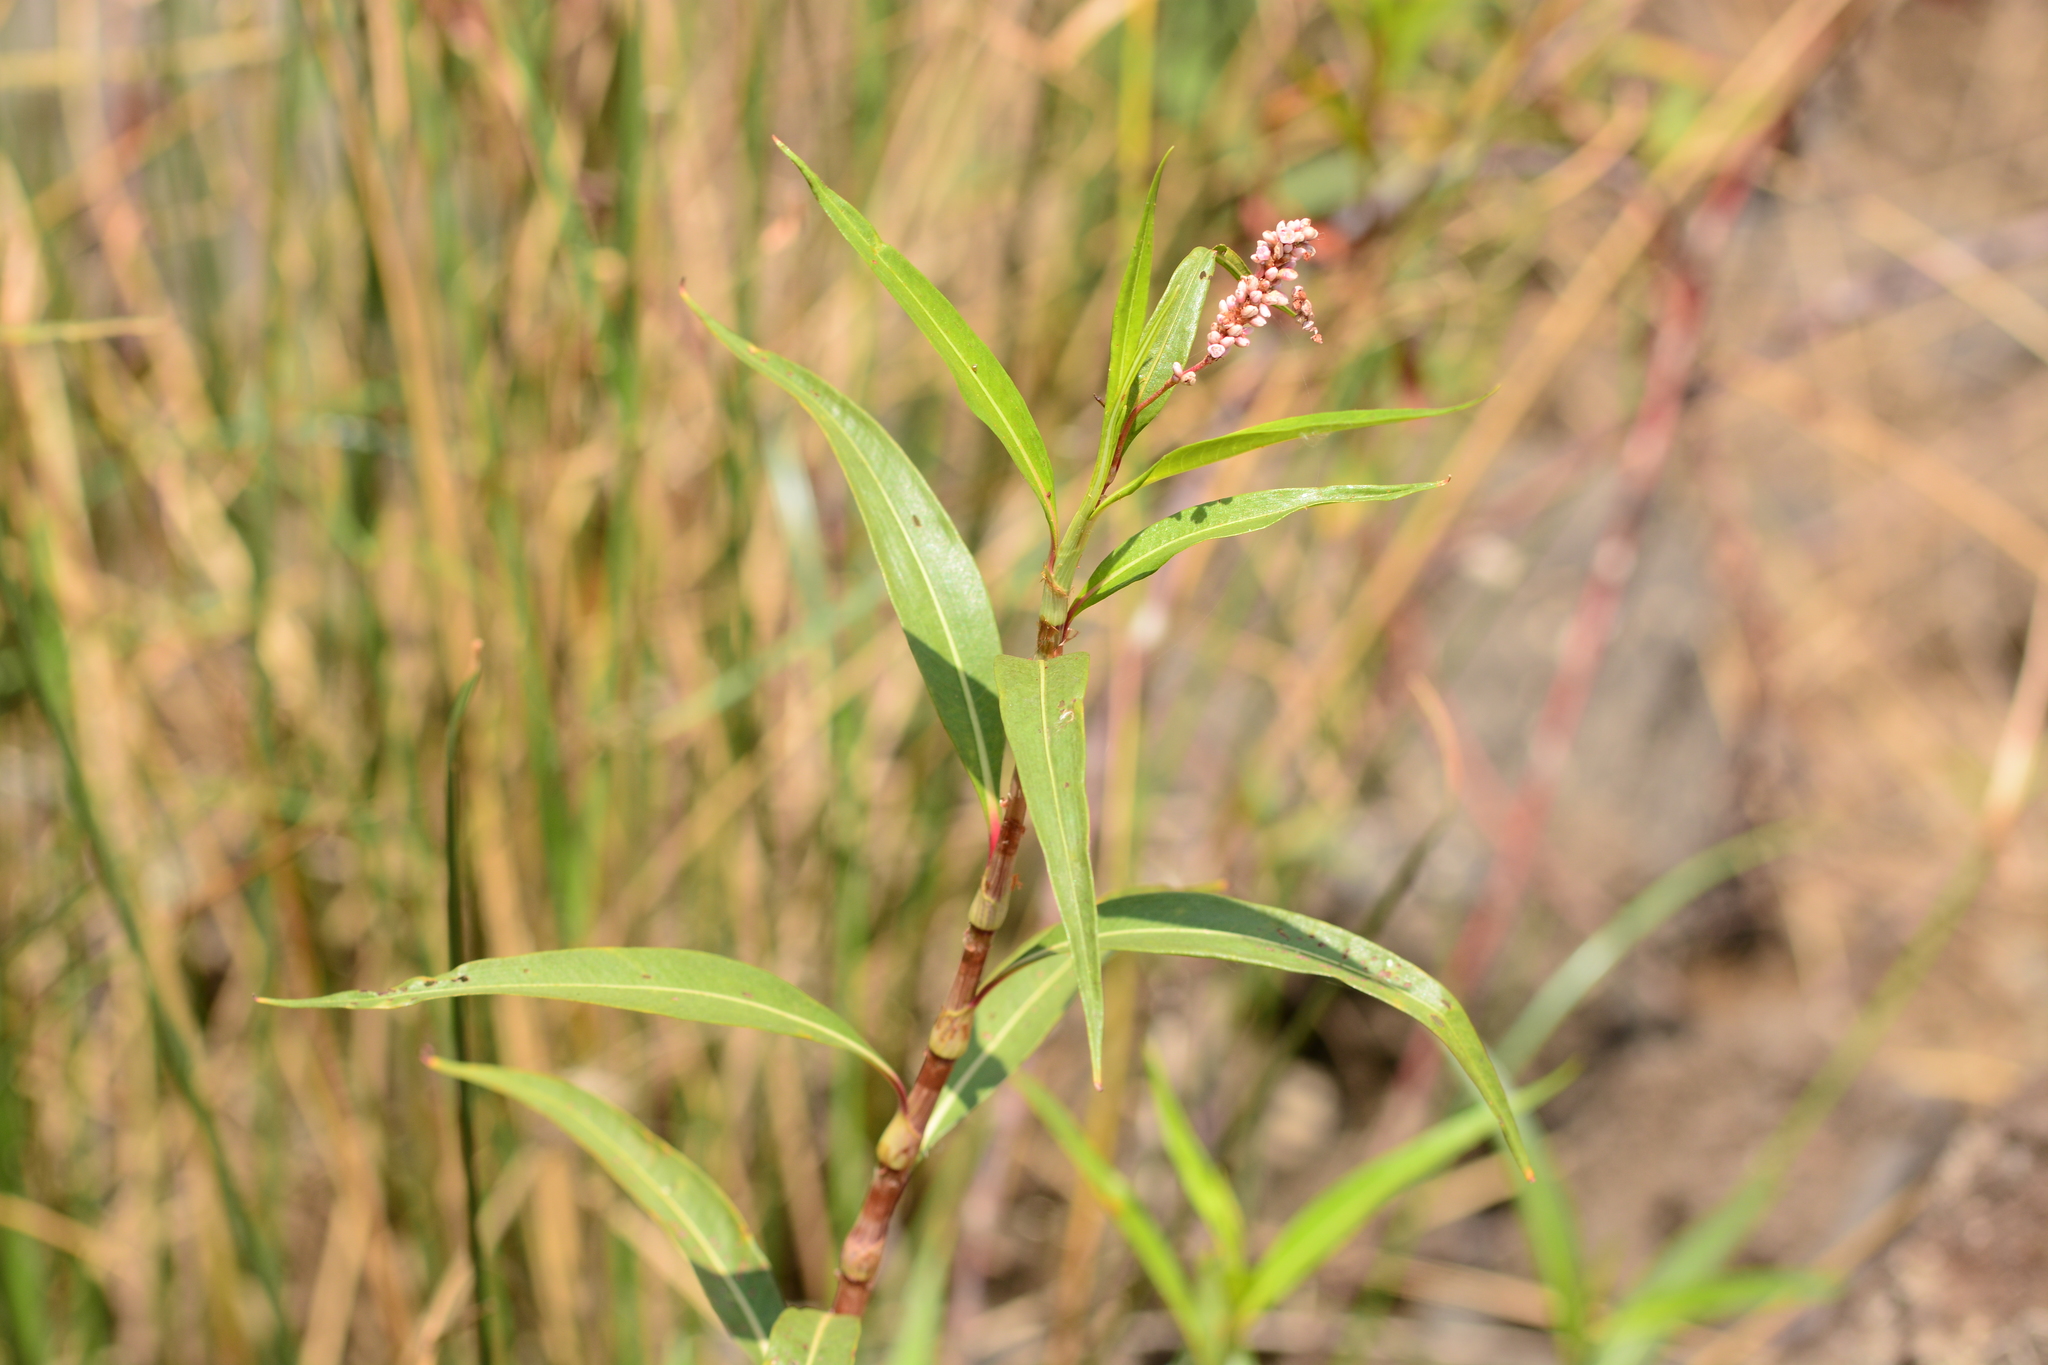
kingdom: Plantae
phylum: Tracheophyta
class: Magnoliopsida
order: Caryophyllales
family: Polygonaceae
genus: Persicaria
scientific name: Persicaria glabra
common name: Denseflower knotweed
